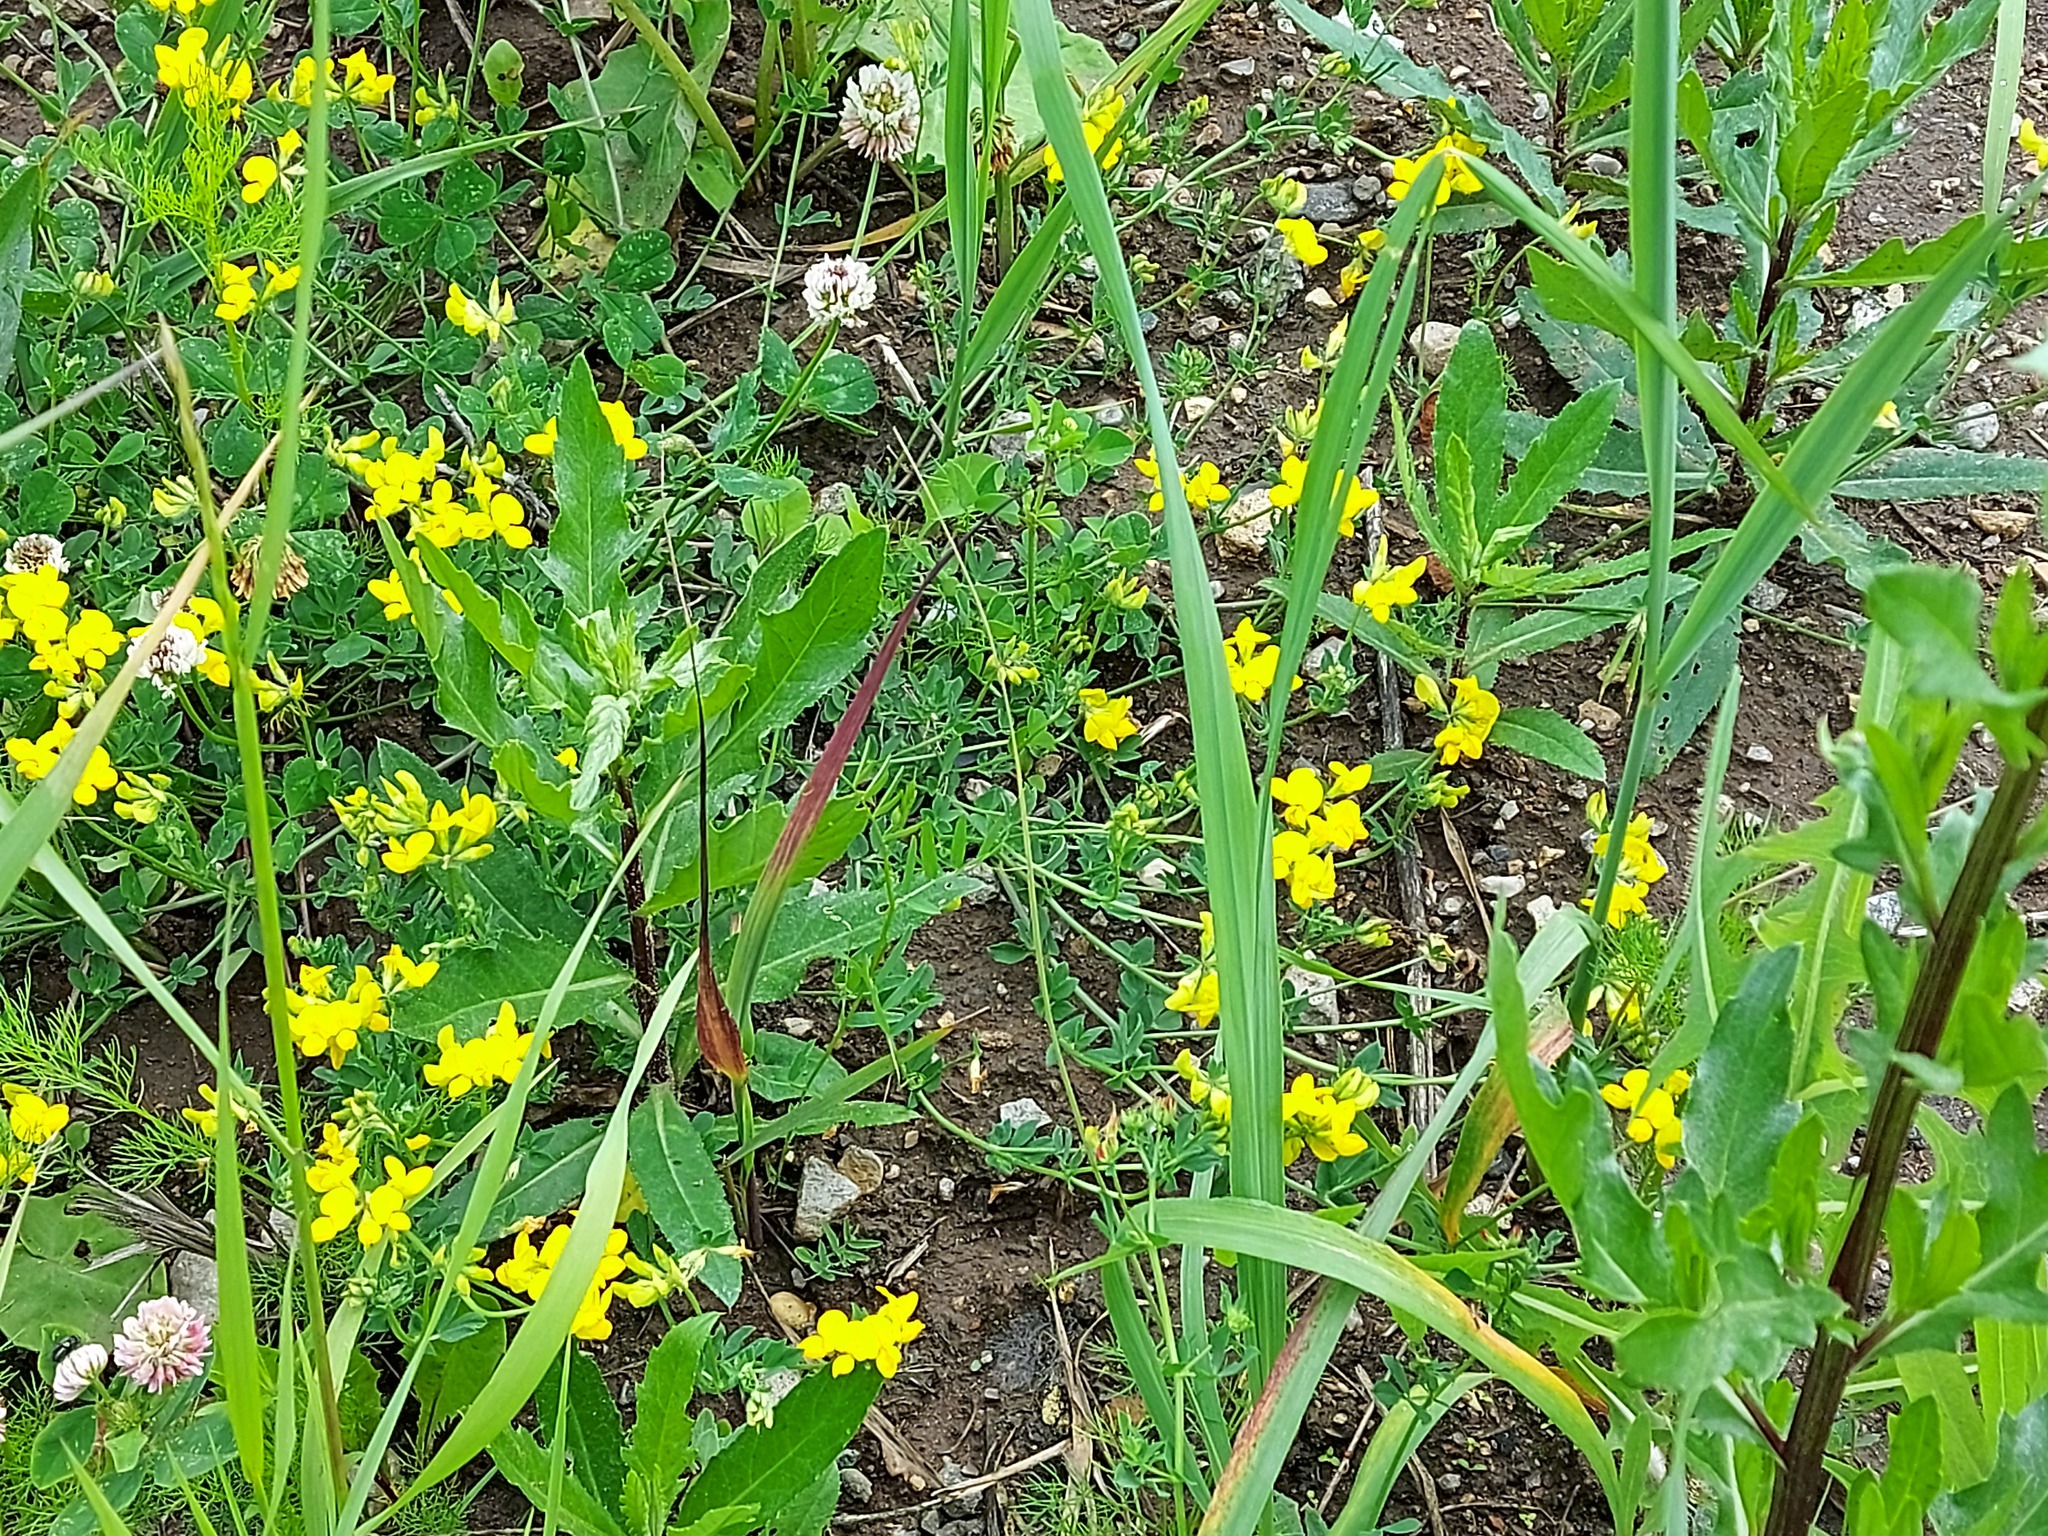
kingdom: Plantae
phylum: Tracheophyta
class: Magnoliopsida
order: Fabales
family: Fabaceae
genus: Lotus
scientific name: Lotus corniculatus
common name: Common bird's-foot-trefoil
